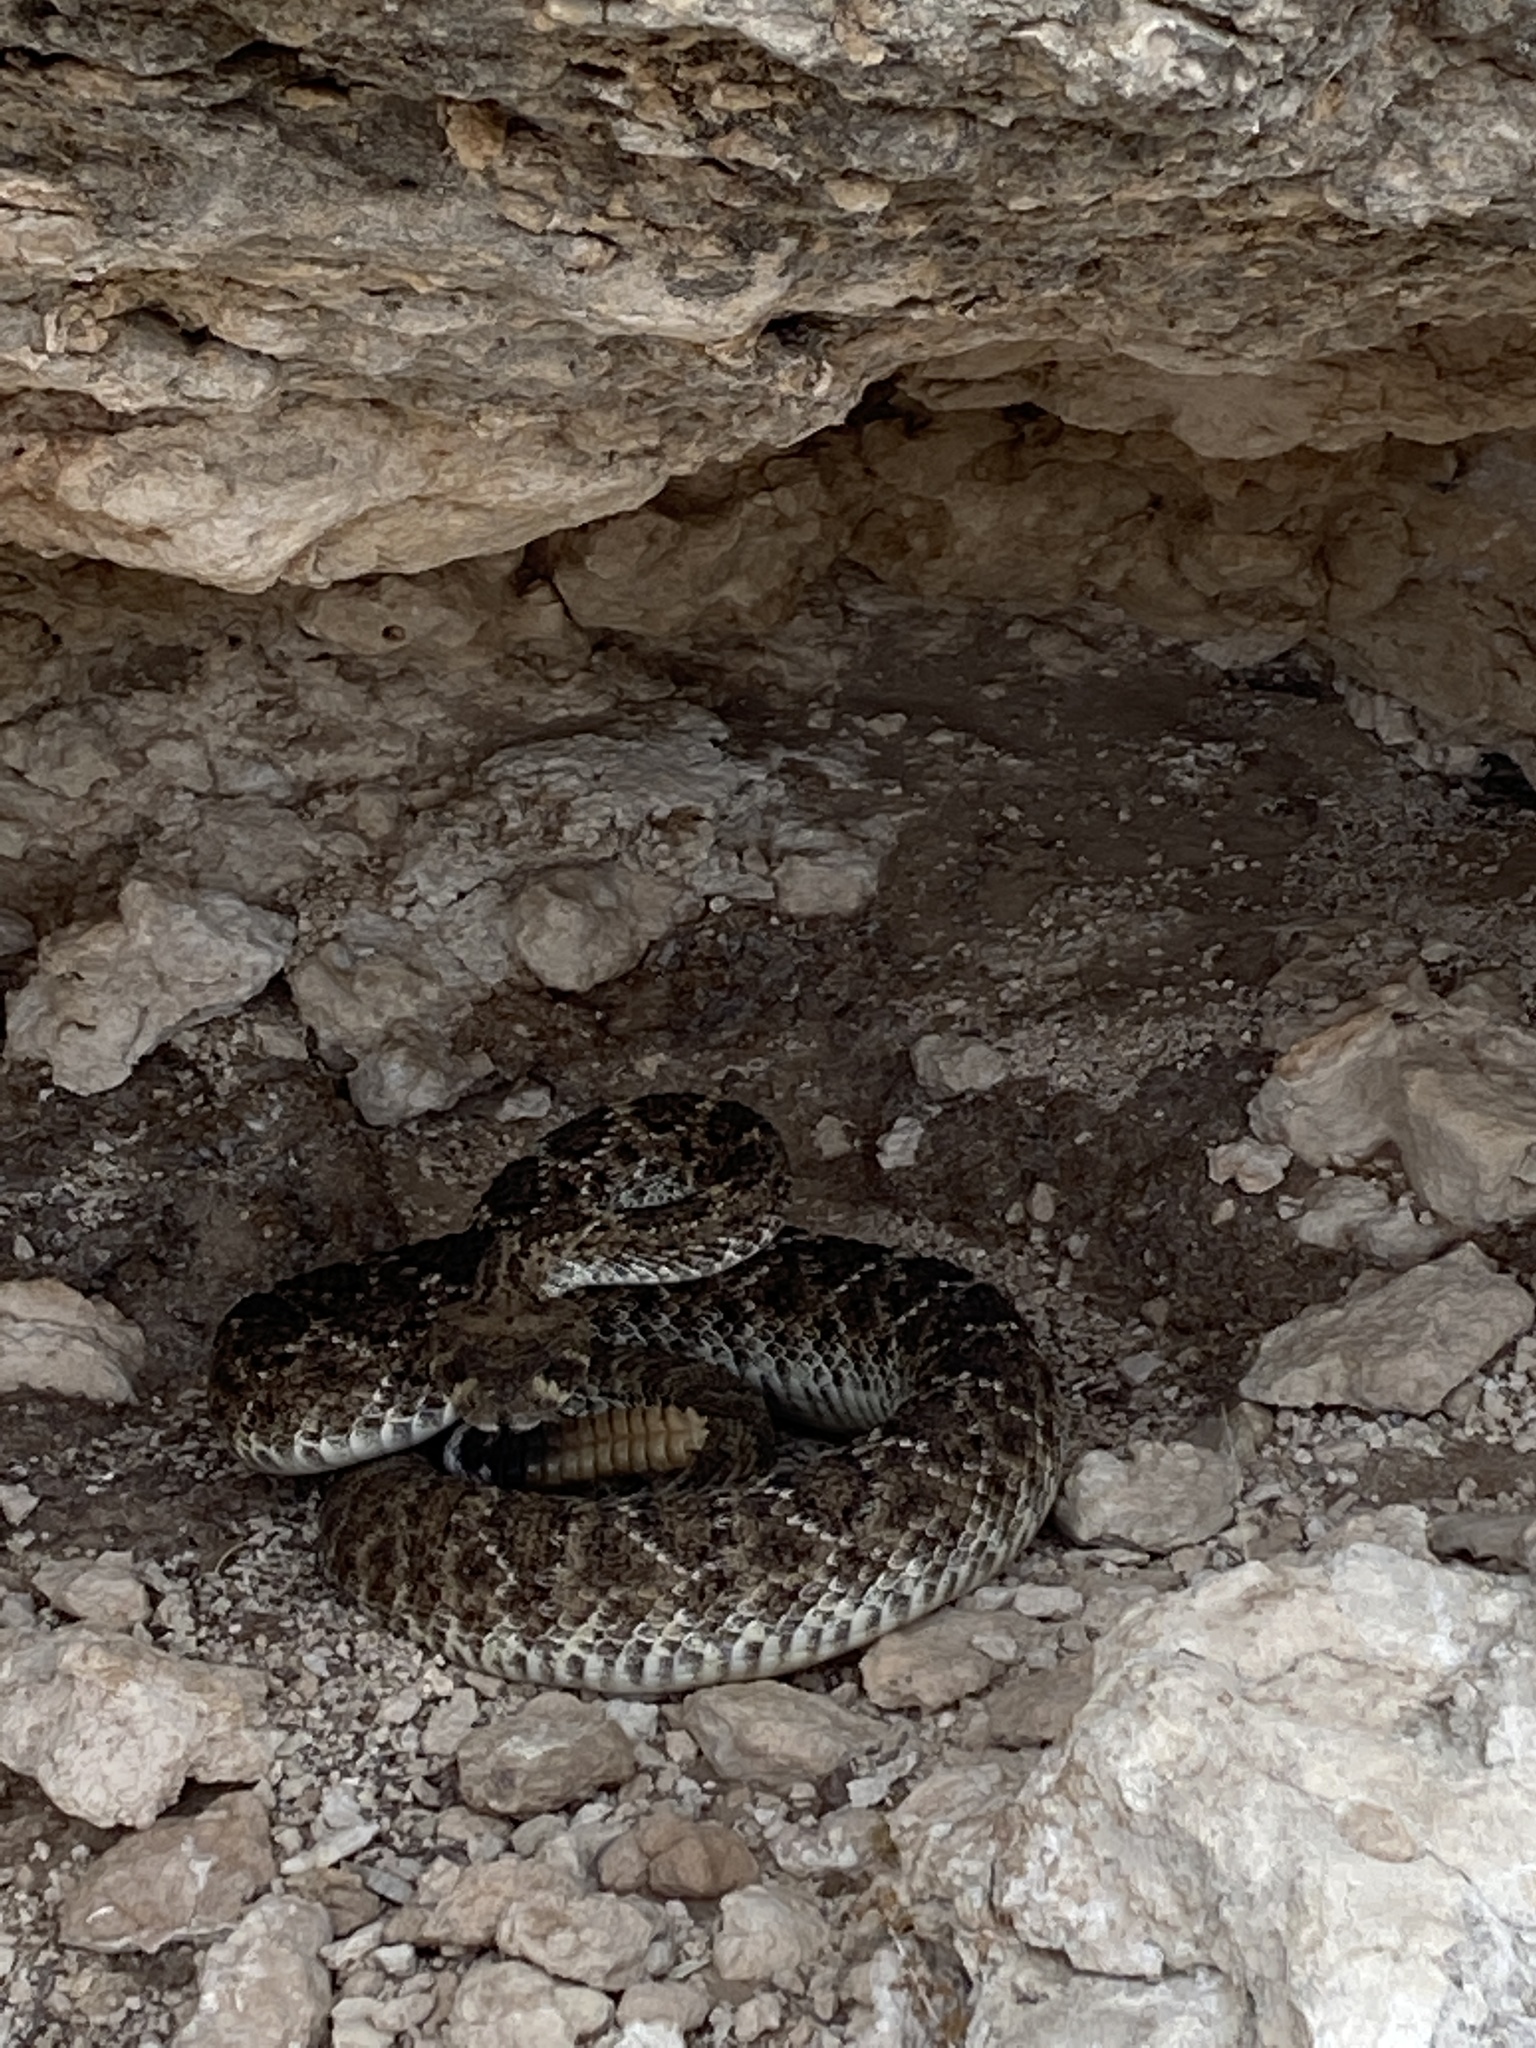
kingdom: Animalia
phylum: Chordata
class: Squamata
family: Viperidae
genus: Crotalus
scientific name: Crotalus atrox
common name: Western diamond-backed rattlesnake
